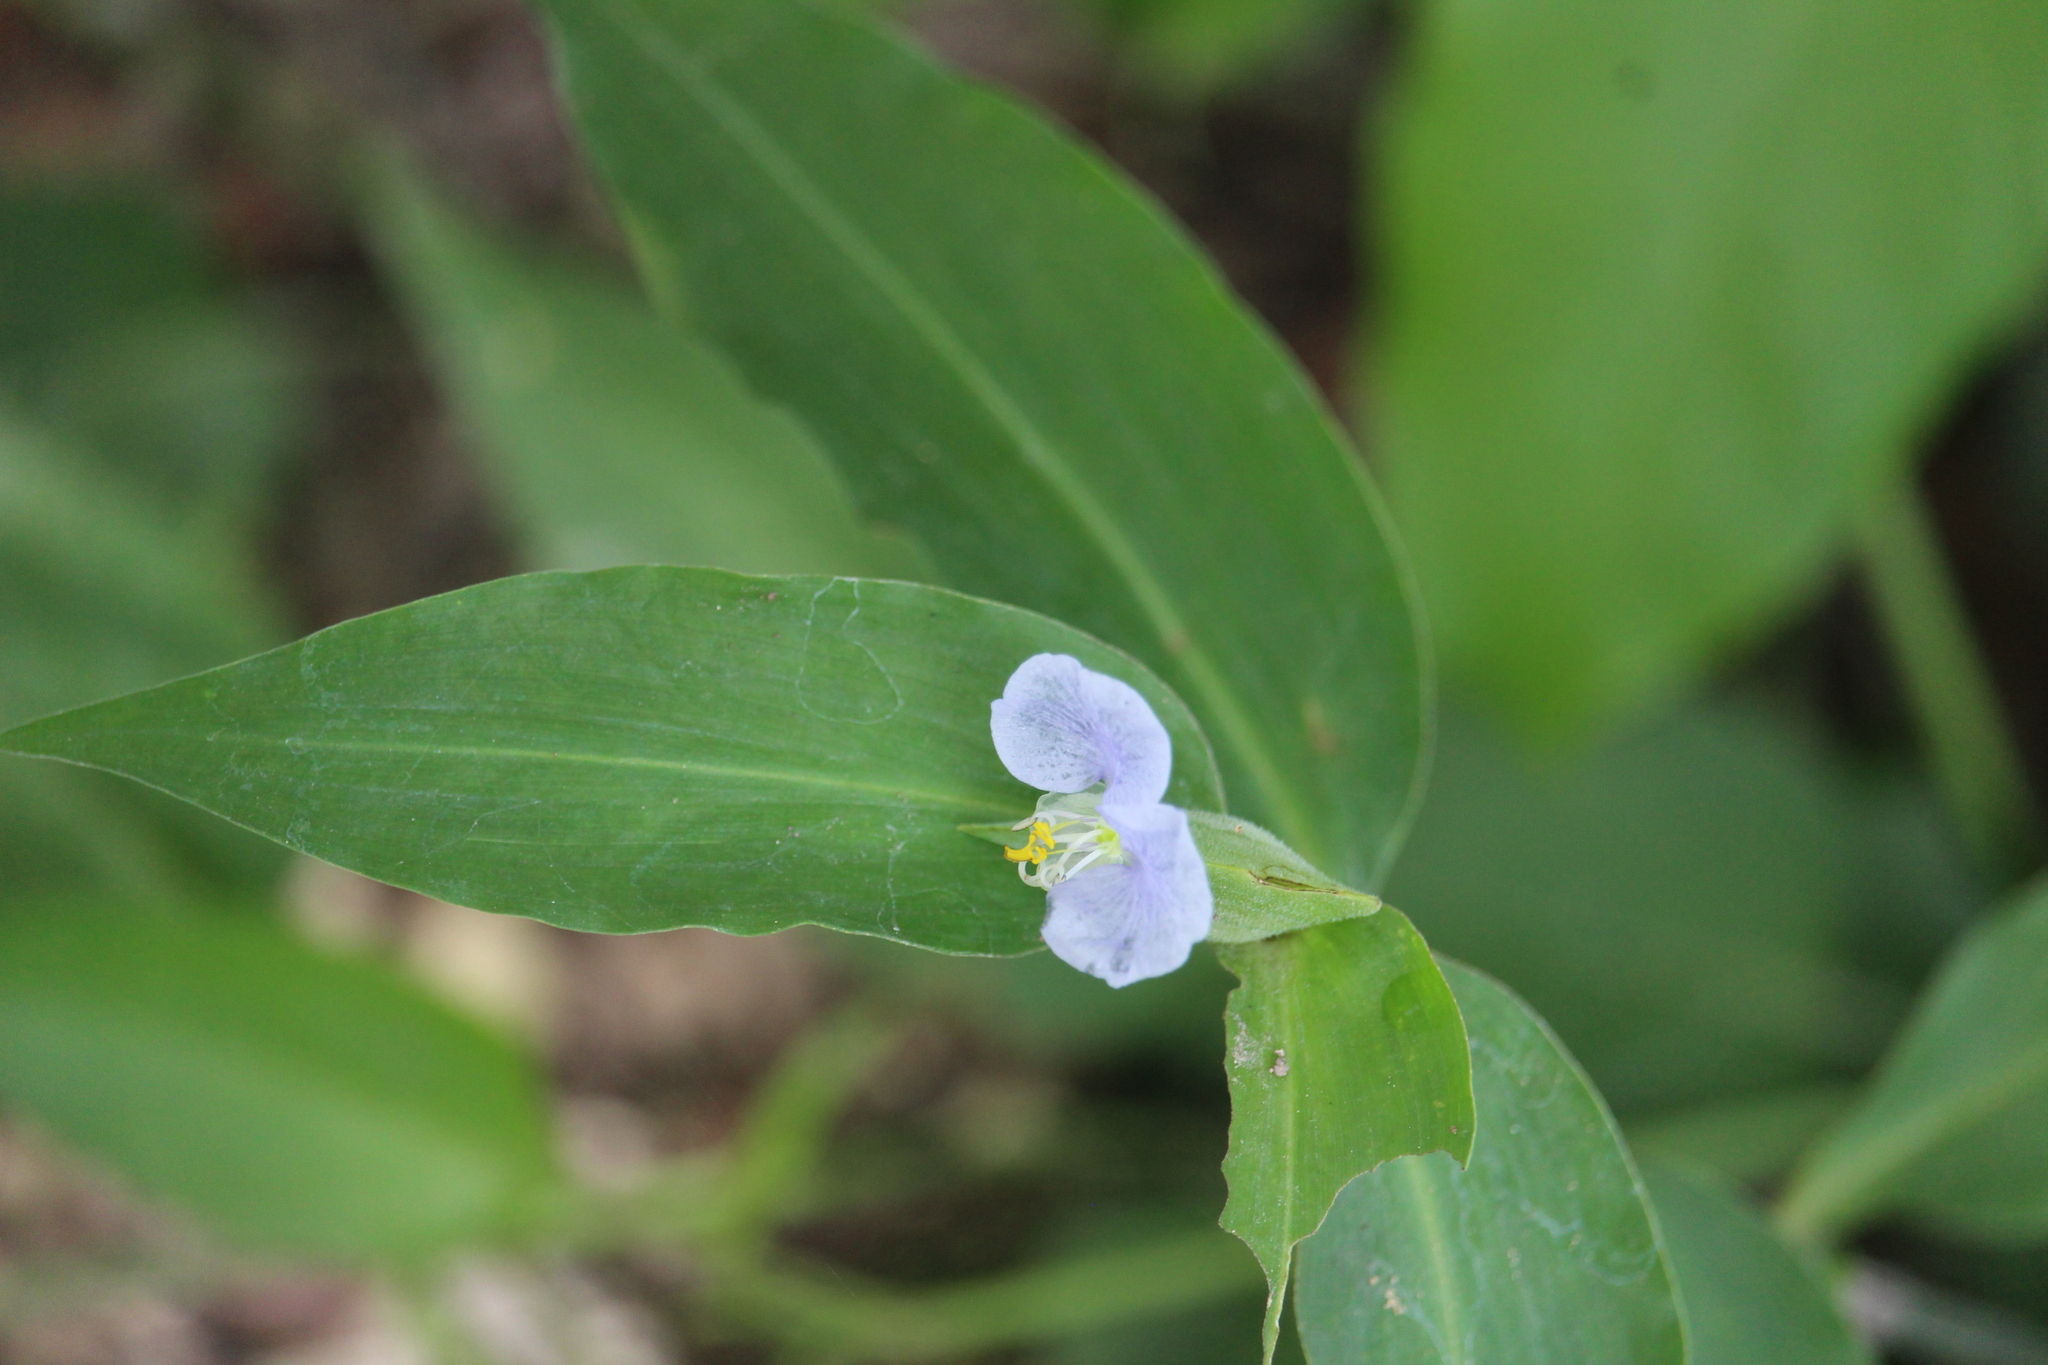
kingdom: Plantae
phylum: Tracheophyta
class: Liliopsida
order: Commelinales
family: Commelinaceae
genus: Commelina
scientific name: Commelina diffusa
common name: Climbing dayflower
